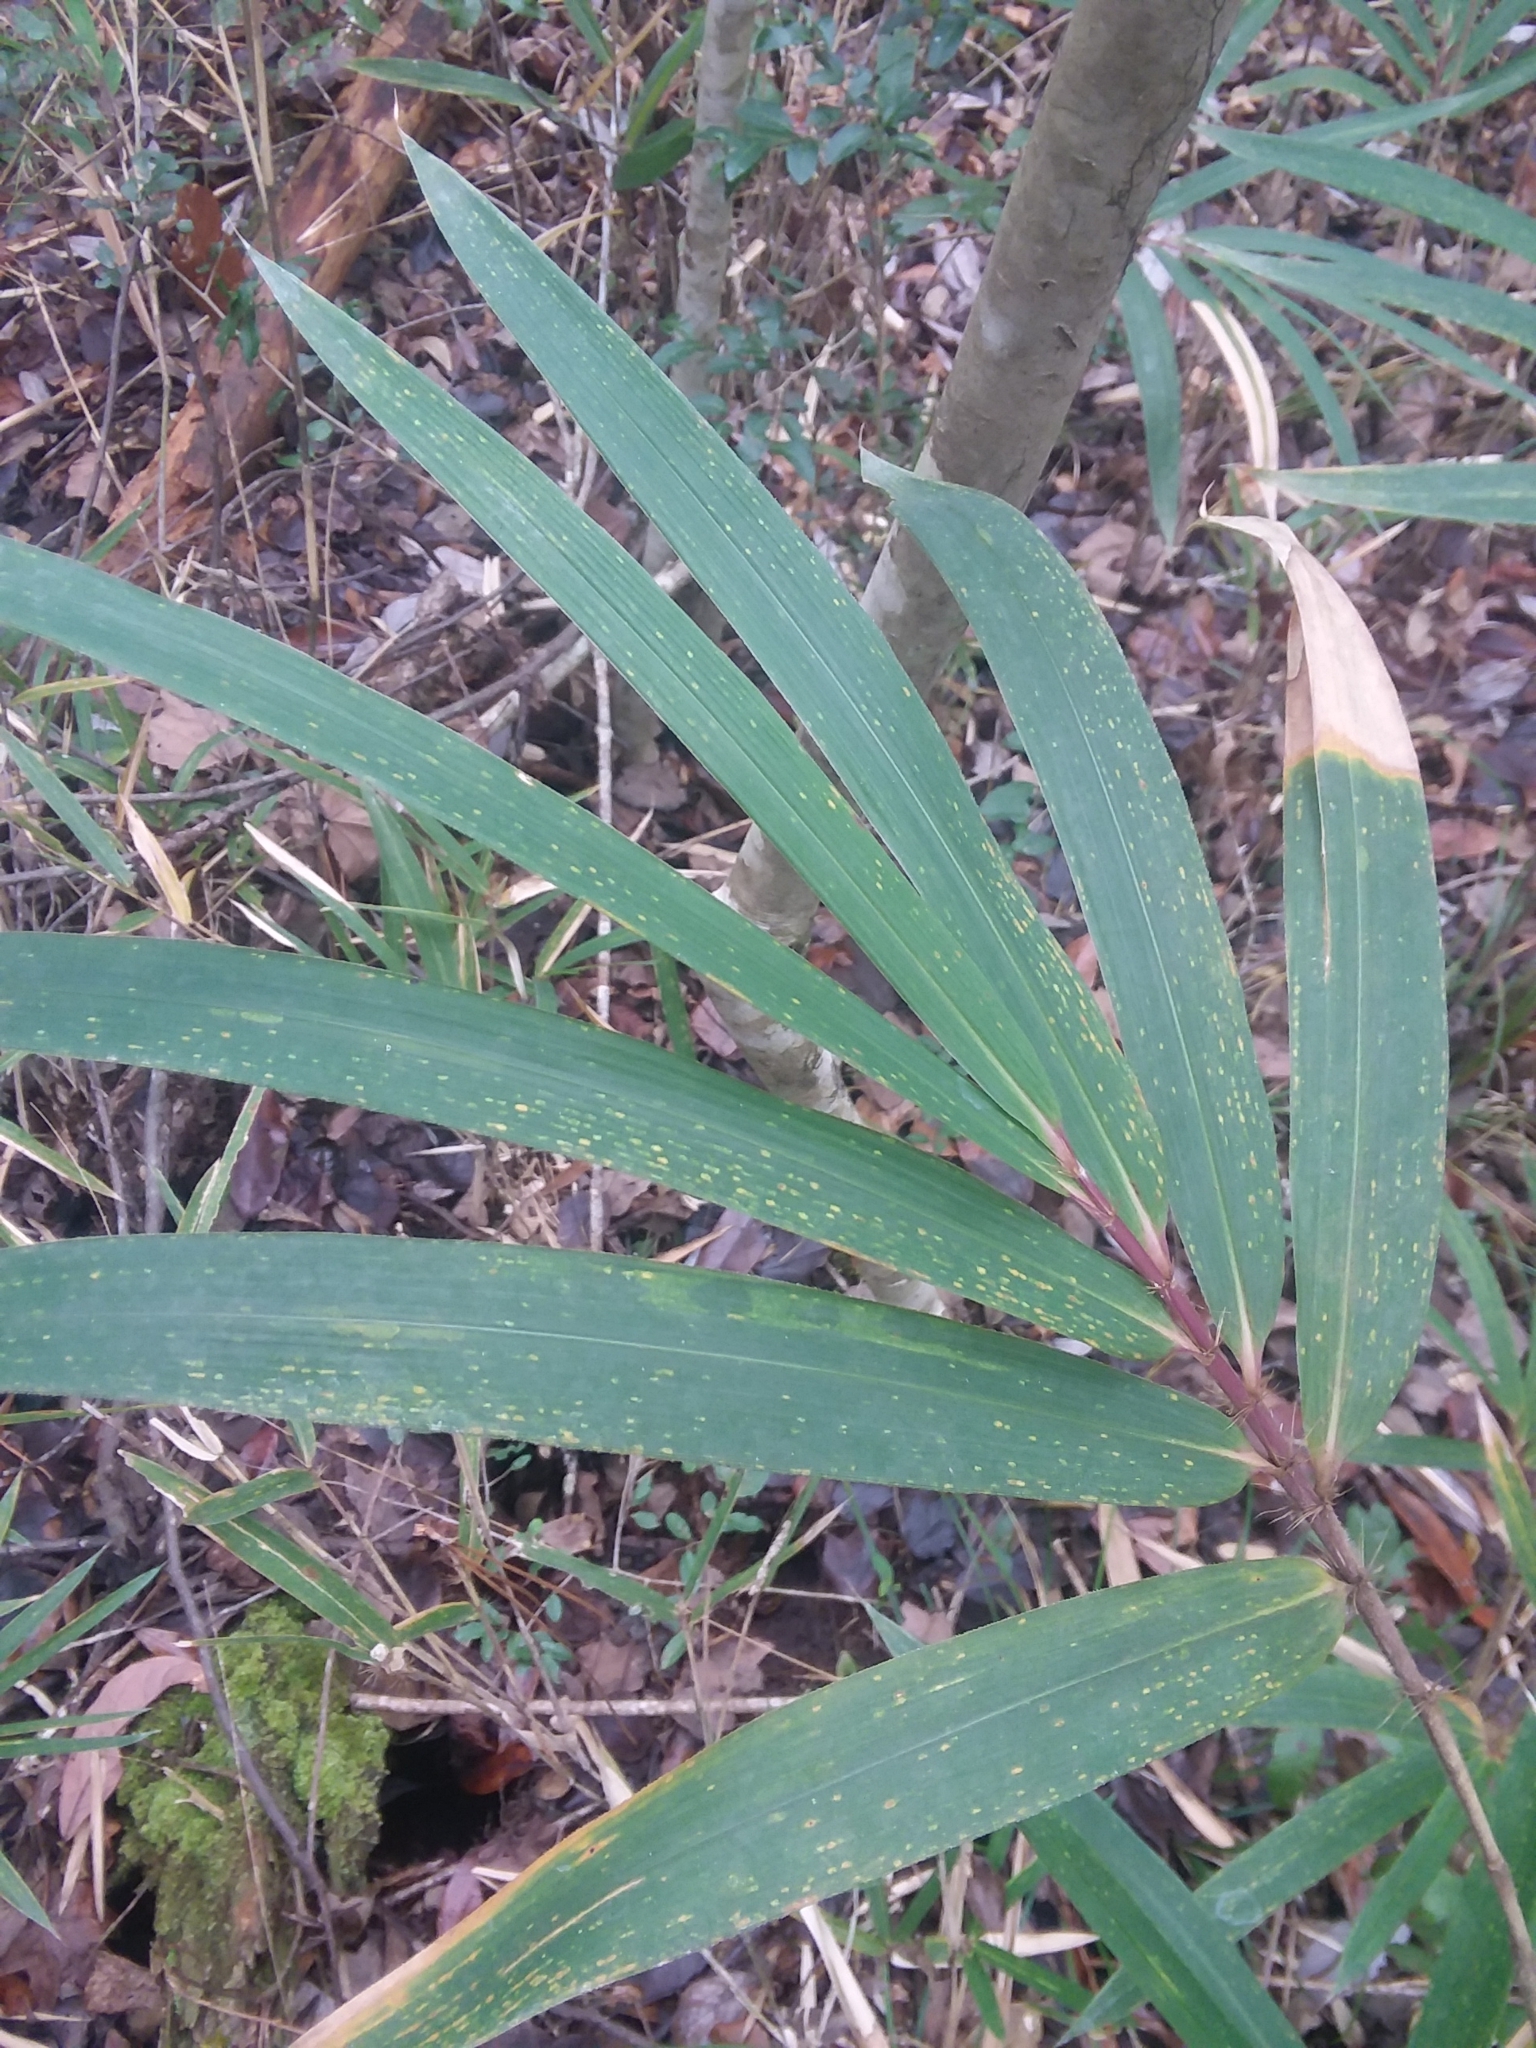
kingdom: Plantae
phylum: Tracheophyta
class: Liliopsida
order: Poales
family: Poaceae
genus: Arundinaria
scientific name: Arundinaria tecta
